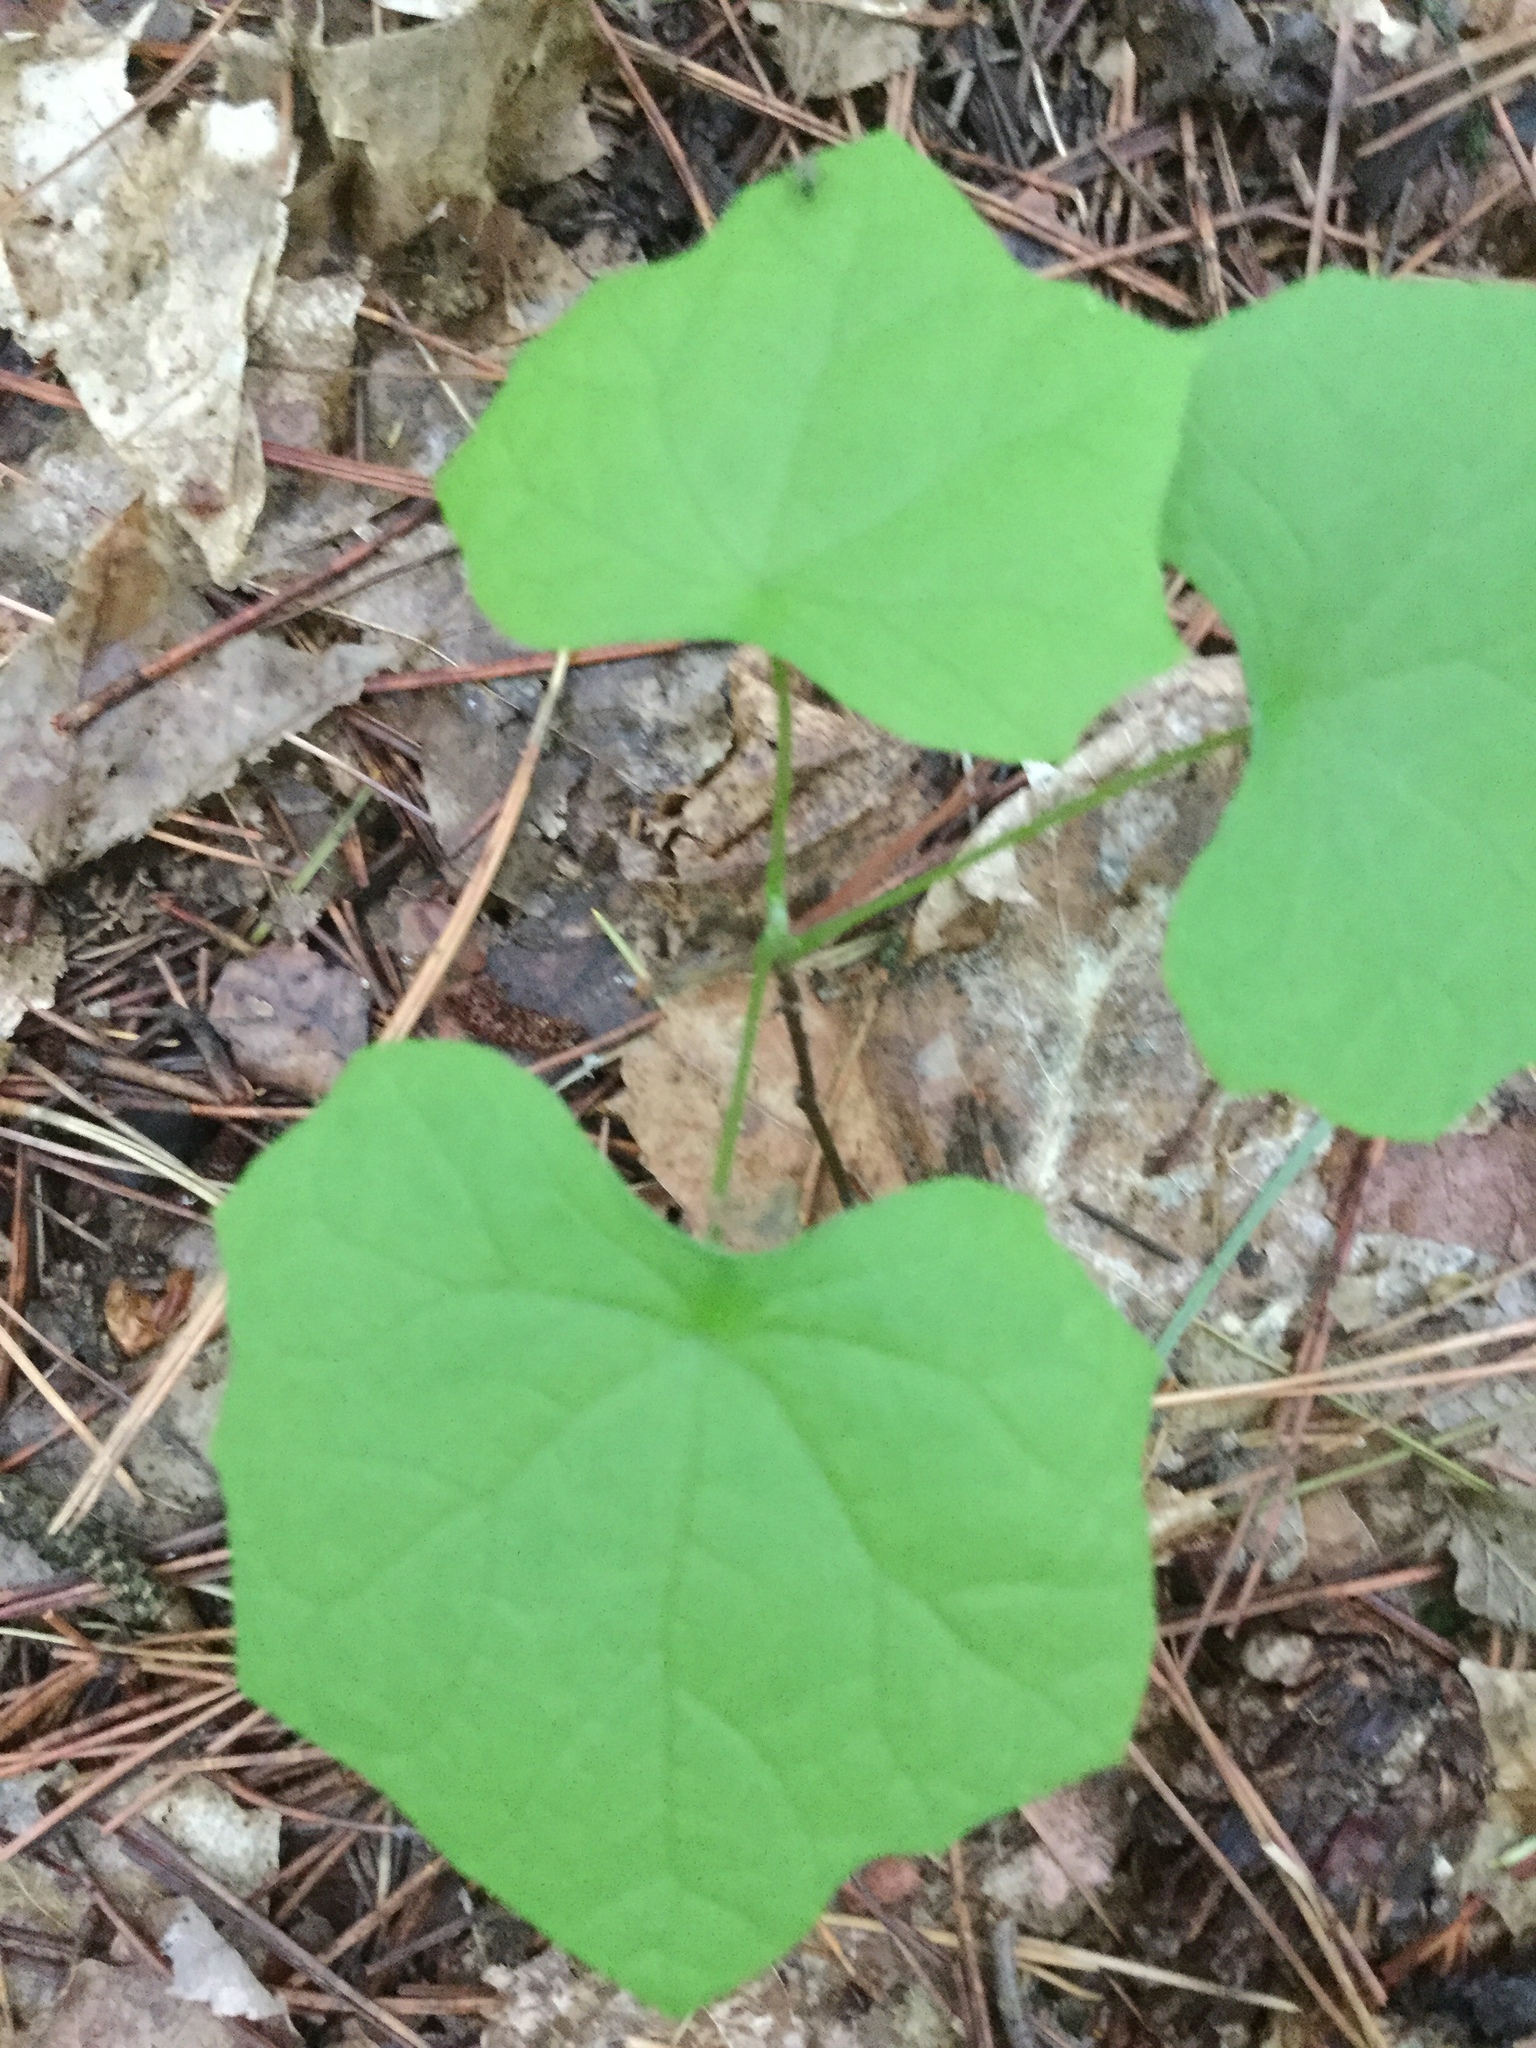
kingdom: Plantae
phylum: Tracheophyta
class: Magnoliopsida
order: Ranunculales
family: Menispermaceae
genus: Menispermum
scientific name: Menispermum canadense
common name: Moonseed
